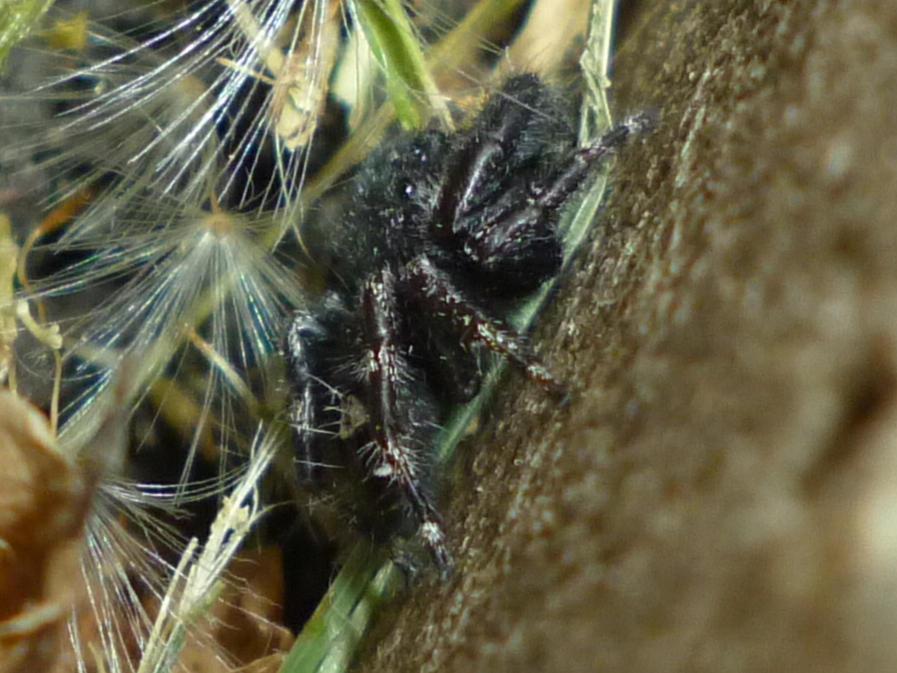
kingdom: Animalia
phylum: Arthropoda
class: Arachnida
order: Araneae
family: Salticidae
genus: Phidippus
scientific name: Phidippus audax
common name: Bold jumper
